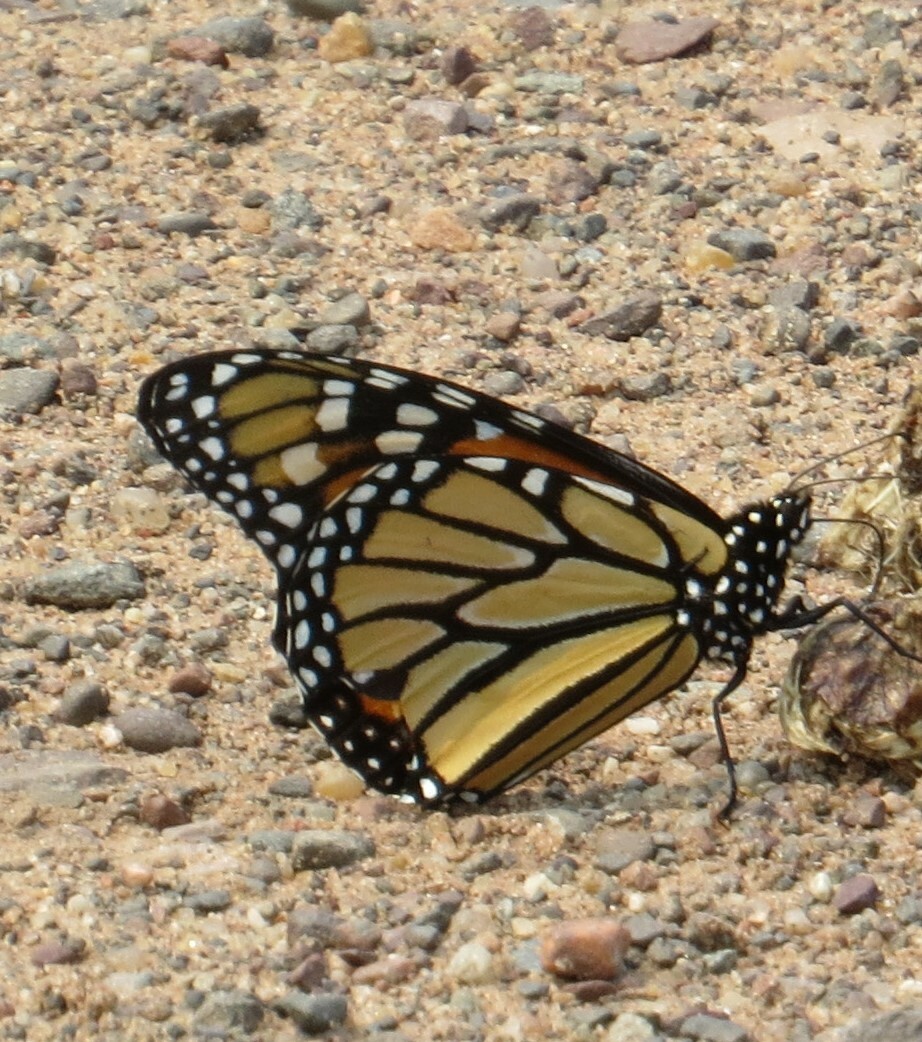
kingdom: Animalia
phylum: Arthropoda
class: Insecta
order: Lepidoptera
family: Nymphalidae
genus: Danaus
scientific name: Danaus plexippus
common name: Monarch
